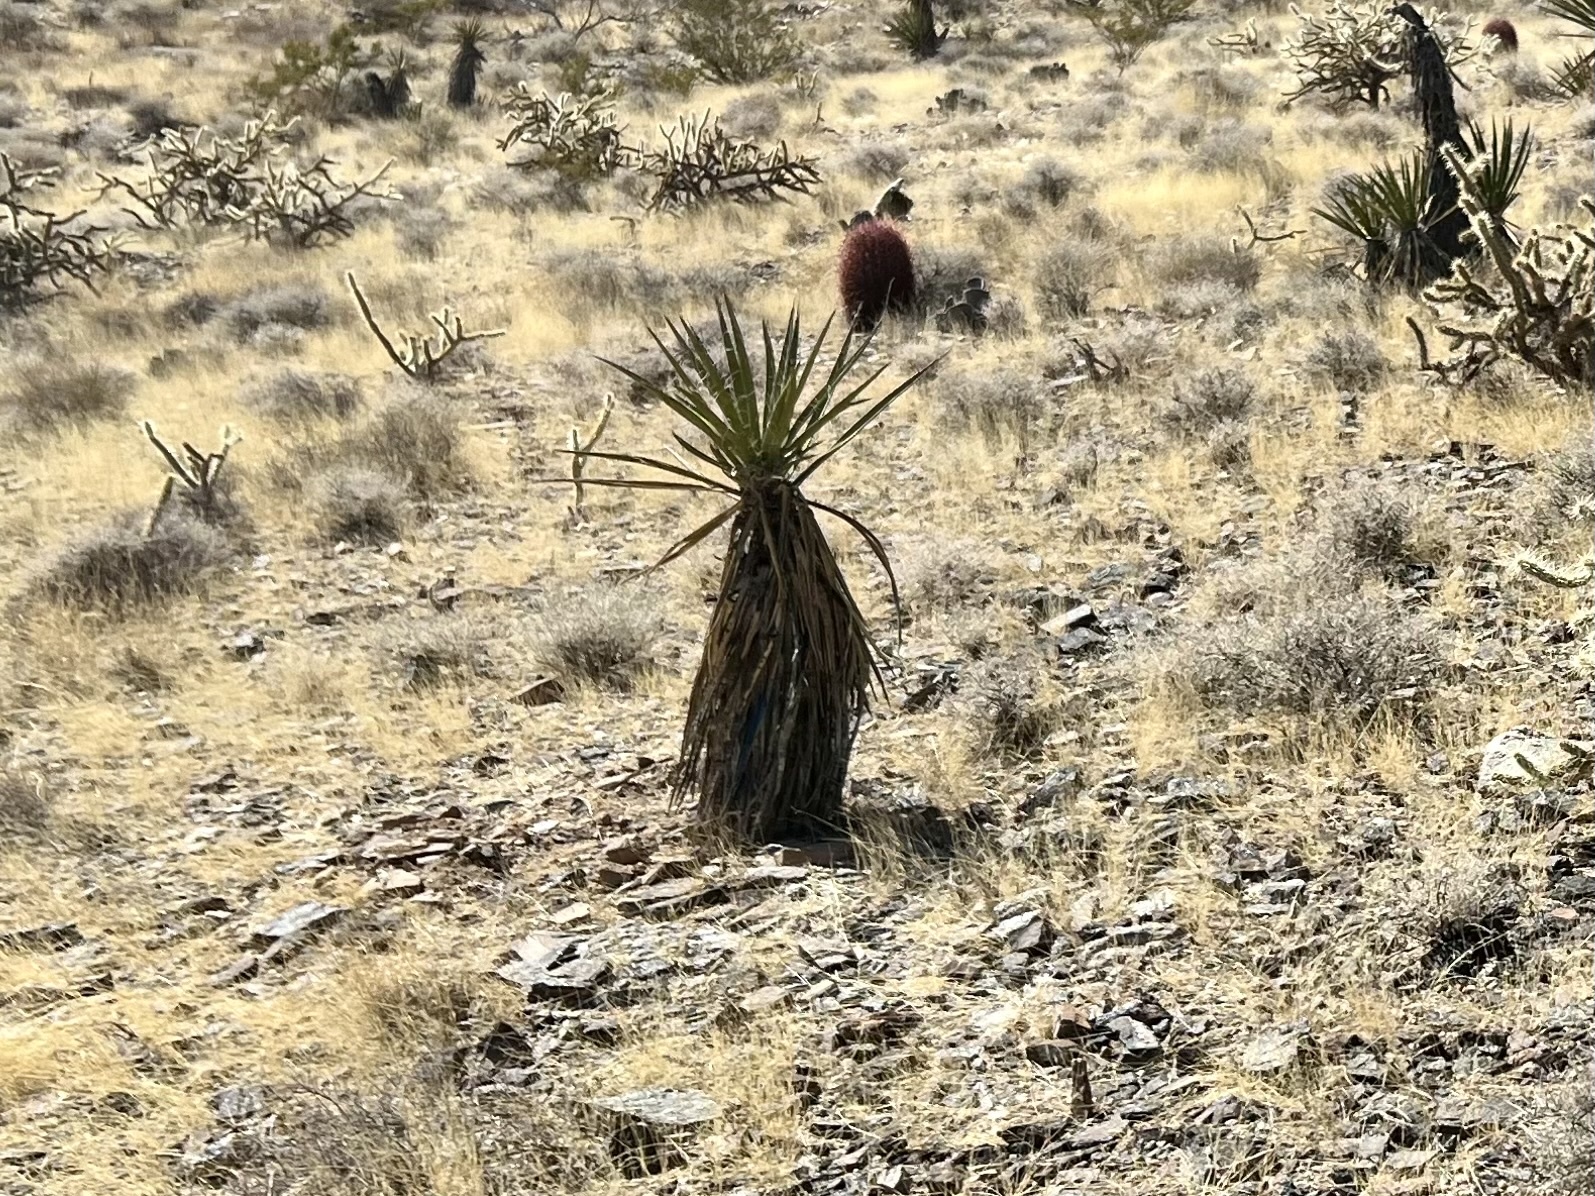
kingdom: Plantae
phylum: Tracheophyta
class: Liliopsida
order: Asparagales
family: Asparagaceae
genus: Yucca
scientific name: Yucca schidigera
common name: Mojave yucca
